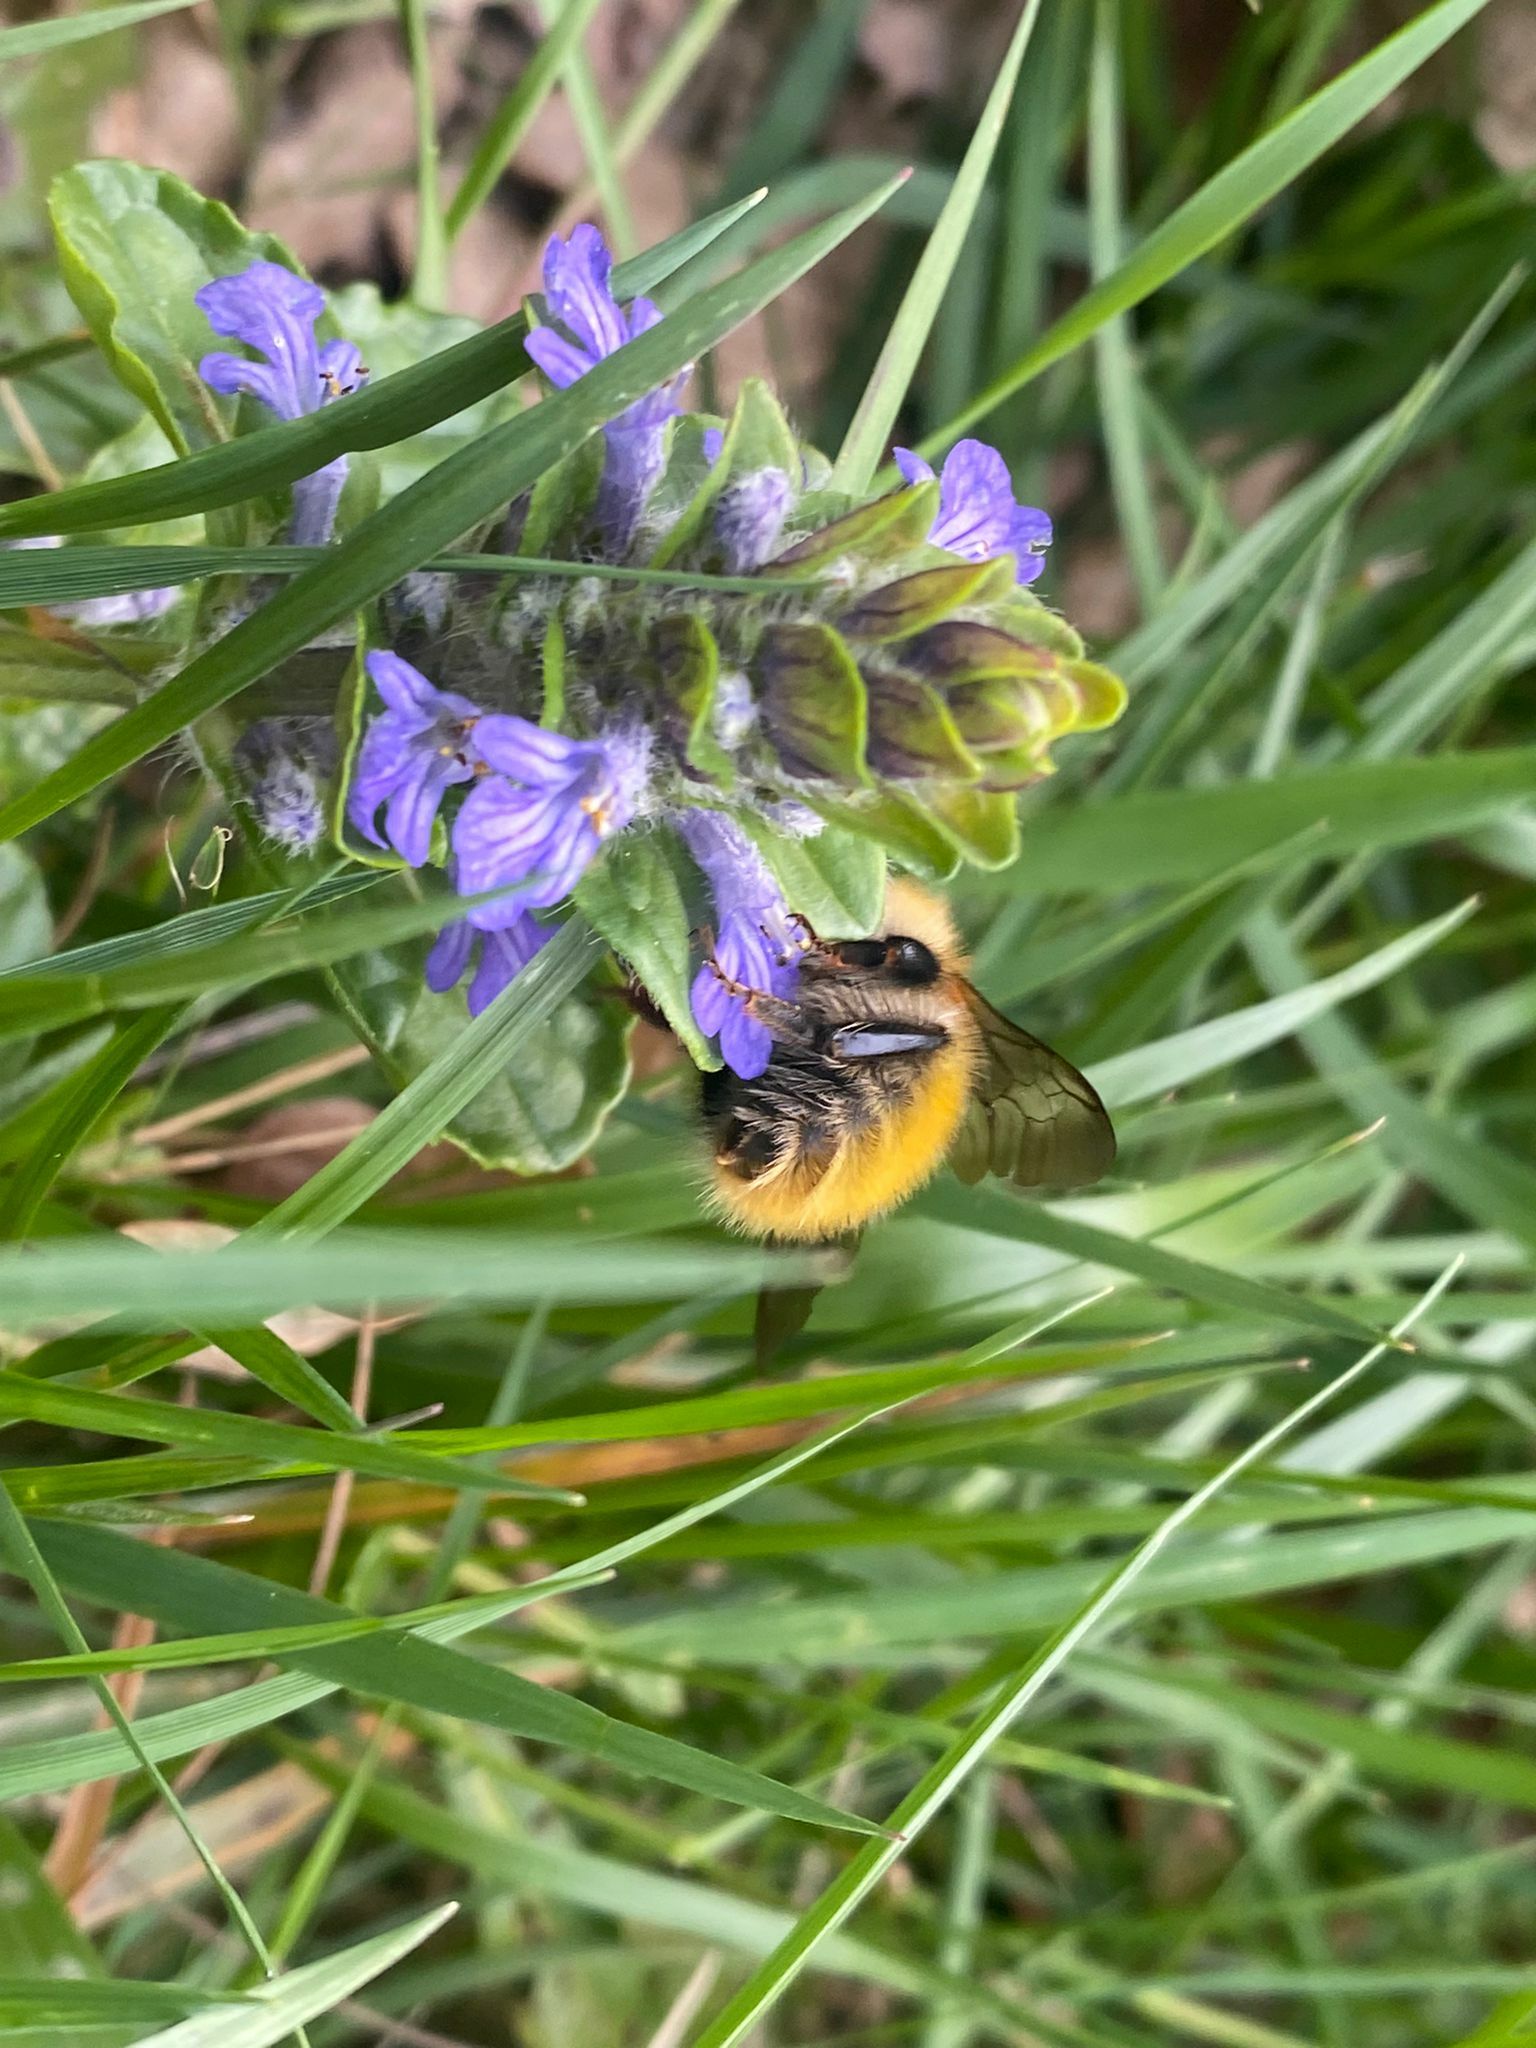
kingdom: Animalia
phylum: Arthropoda
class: Insecta
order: Hymenoptera
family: Apidae
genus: Bombus
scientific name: Bombus pascuorum
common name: Common carder bee
